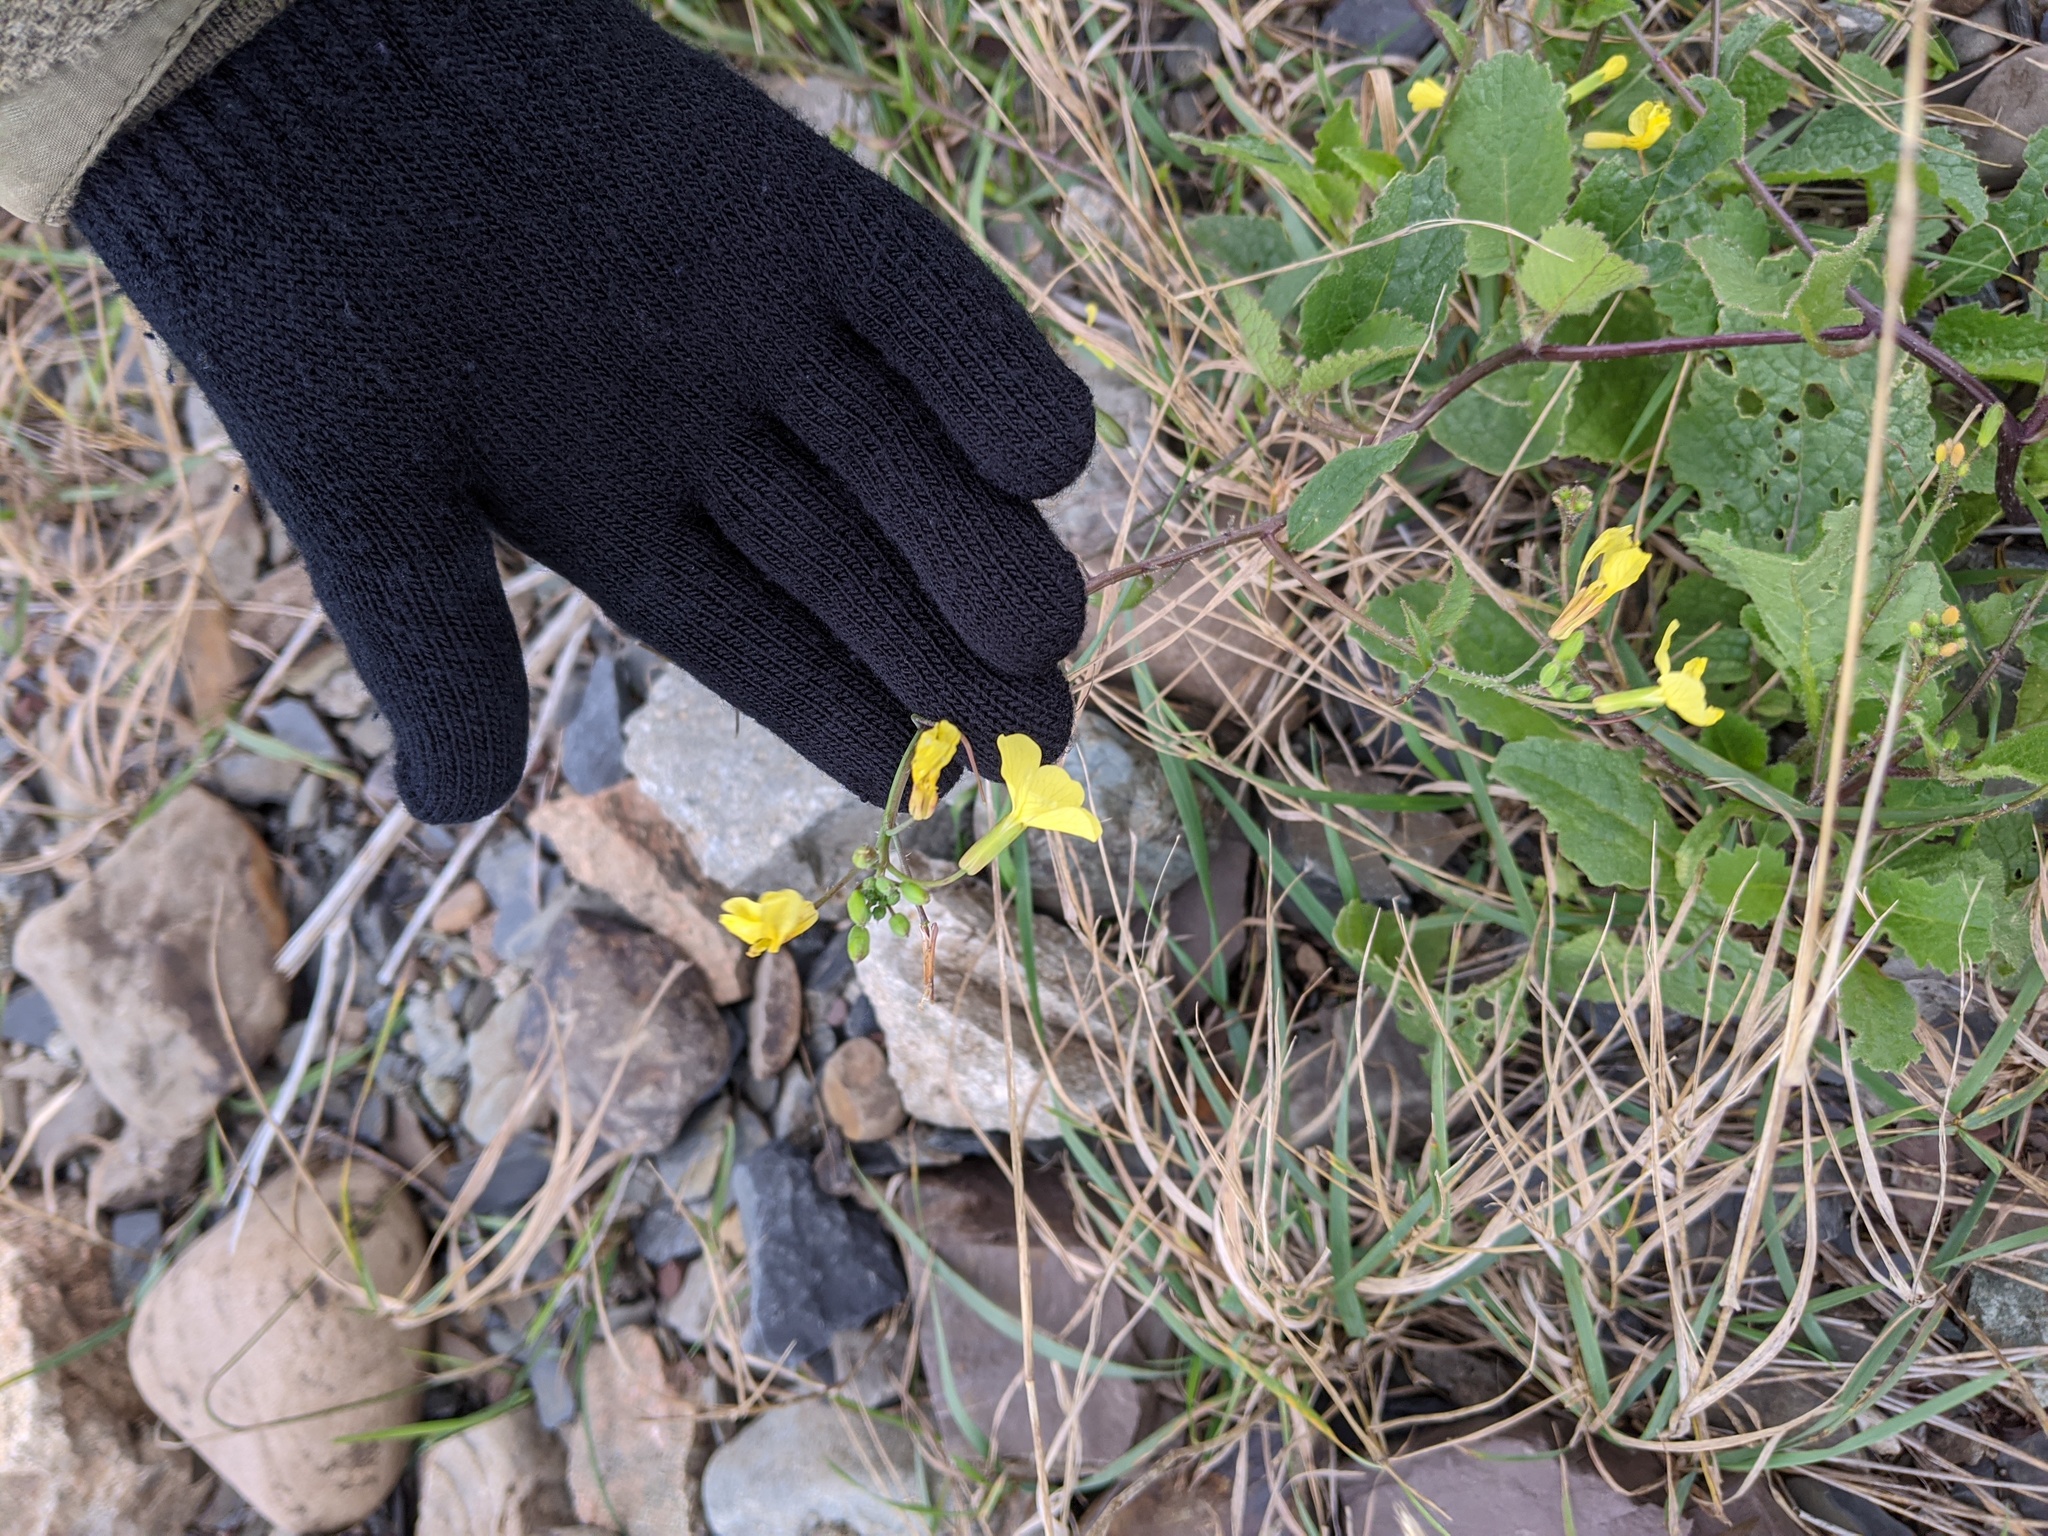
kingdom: Plantae
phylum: Tracheophyta
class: Magnoliopsida
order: Brassicales
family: Brassicaceae
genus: Raphanus
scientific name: Raphanus raphanistrum
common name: Wild radish
